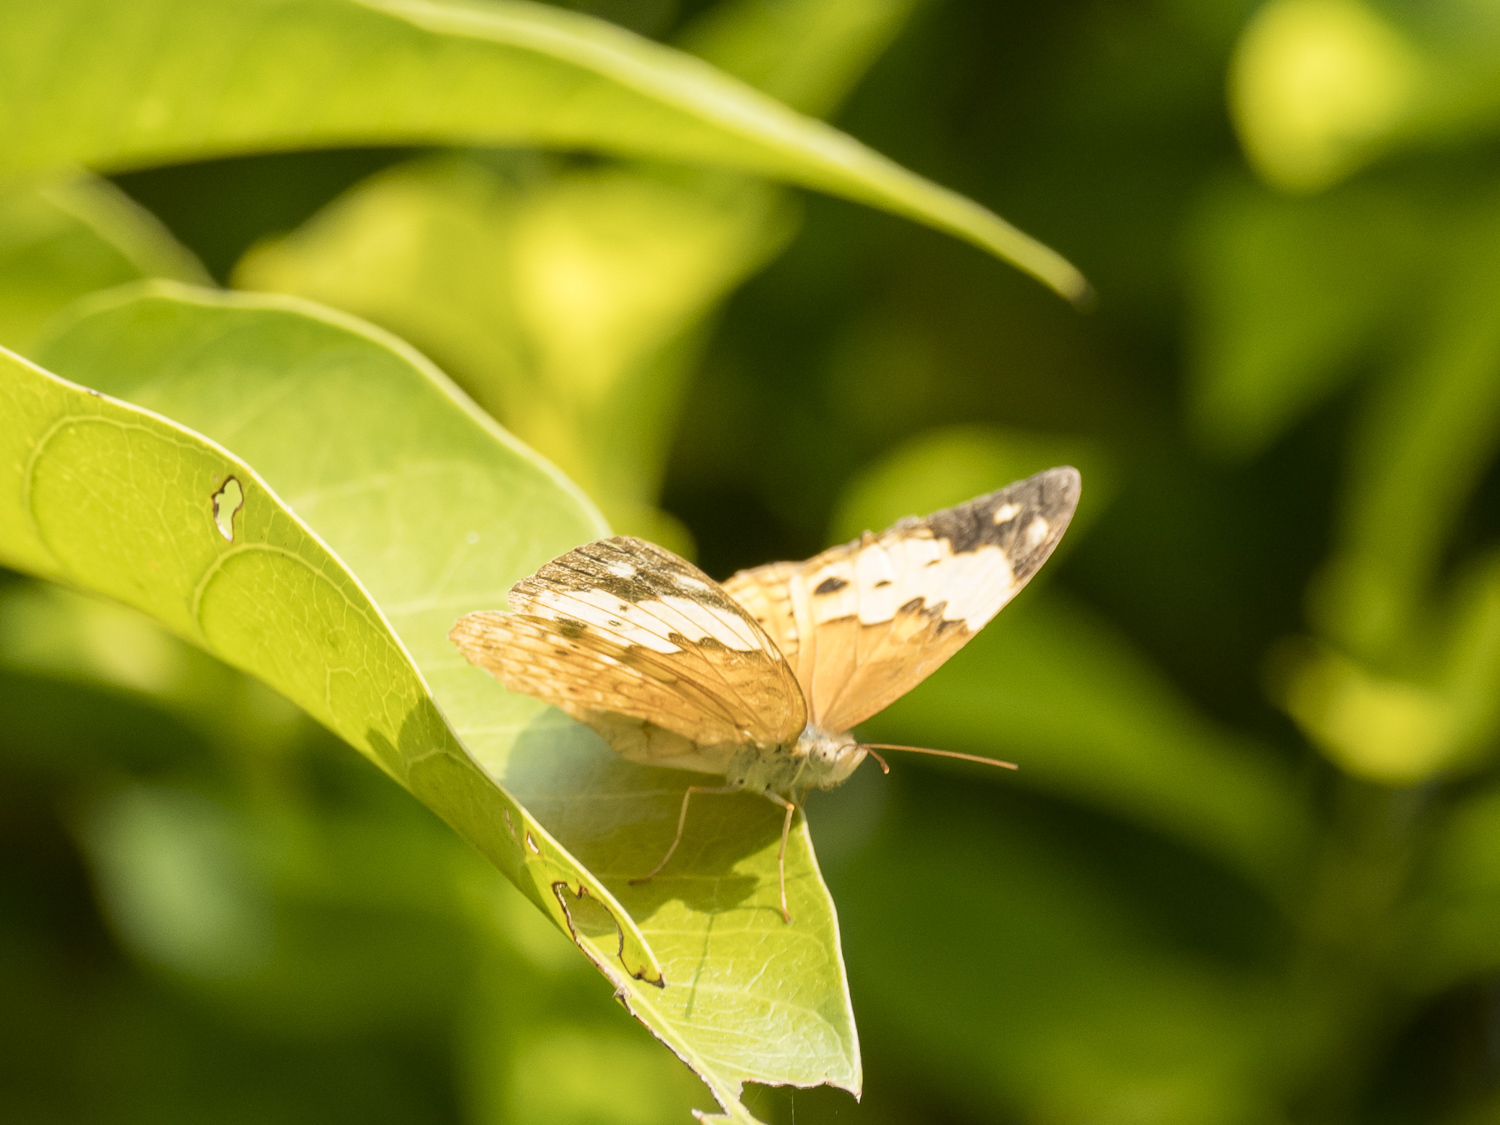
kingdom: Animalia
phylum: Arthropoda
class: Insecta
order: Lepidoptera
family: Nymphalidae
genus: Cupha
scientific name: Cupha erymanthis
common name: Rustic
